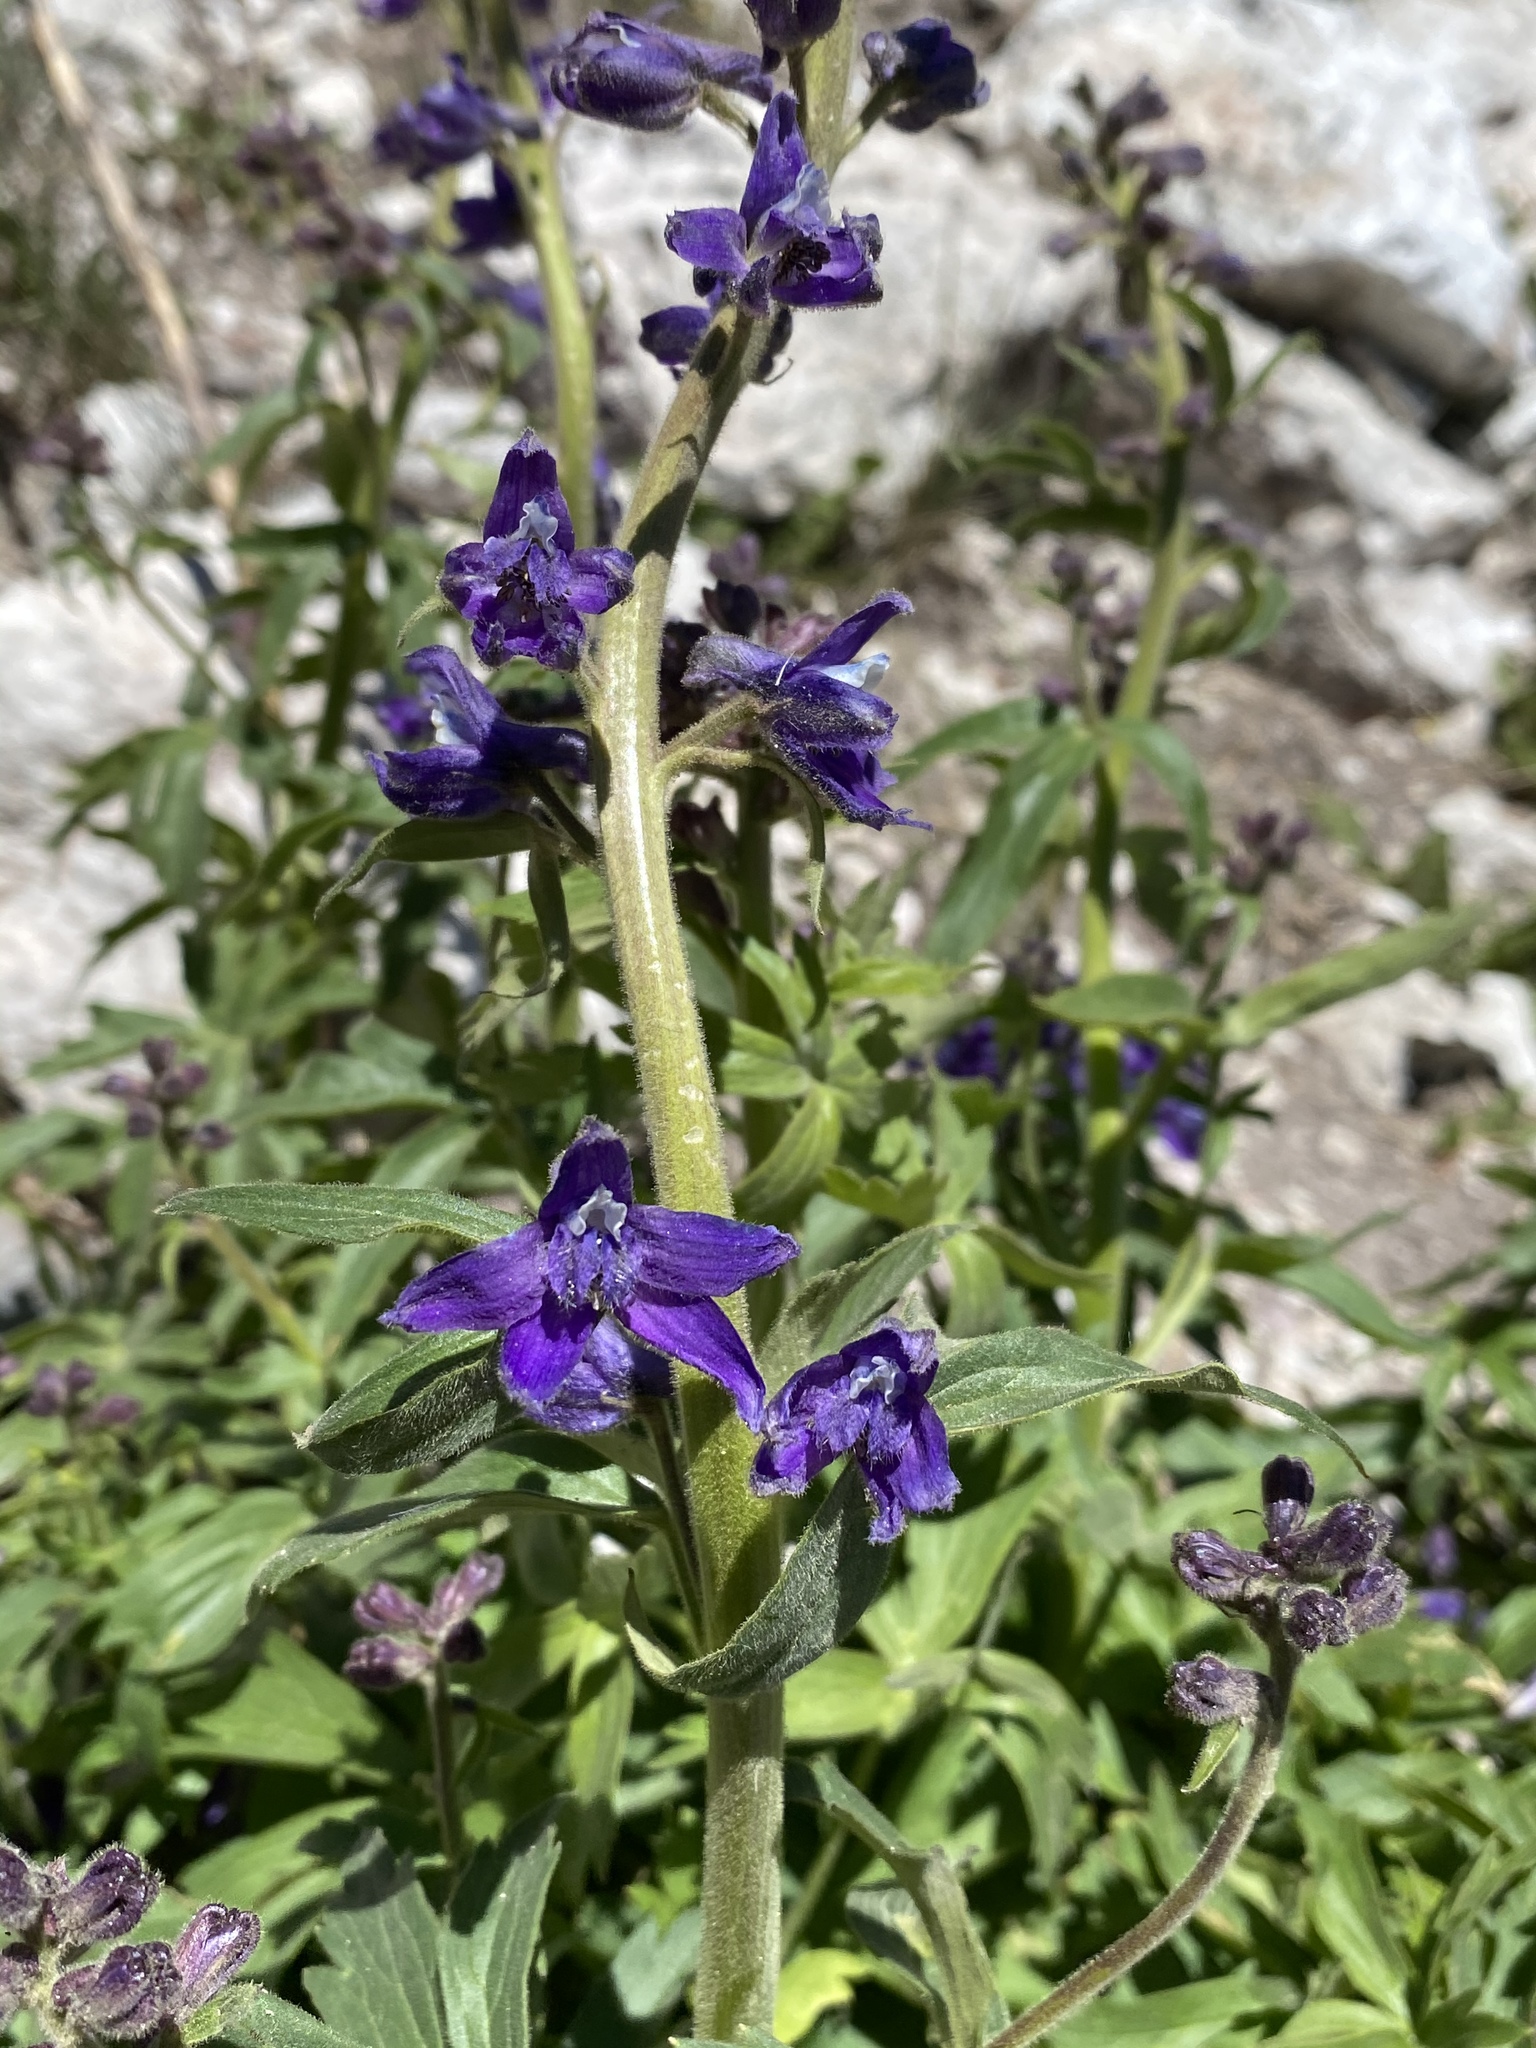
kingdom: Plantae
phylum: Tracheophyta
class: Magnoliopsida
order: Ranunculales
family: Ranunculaceae
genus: Delphinium
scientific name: Delphinium barbeyi
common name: Subalpine larkspur
